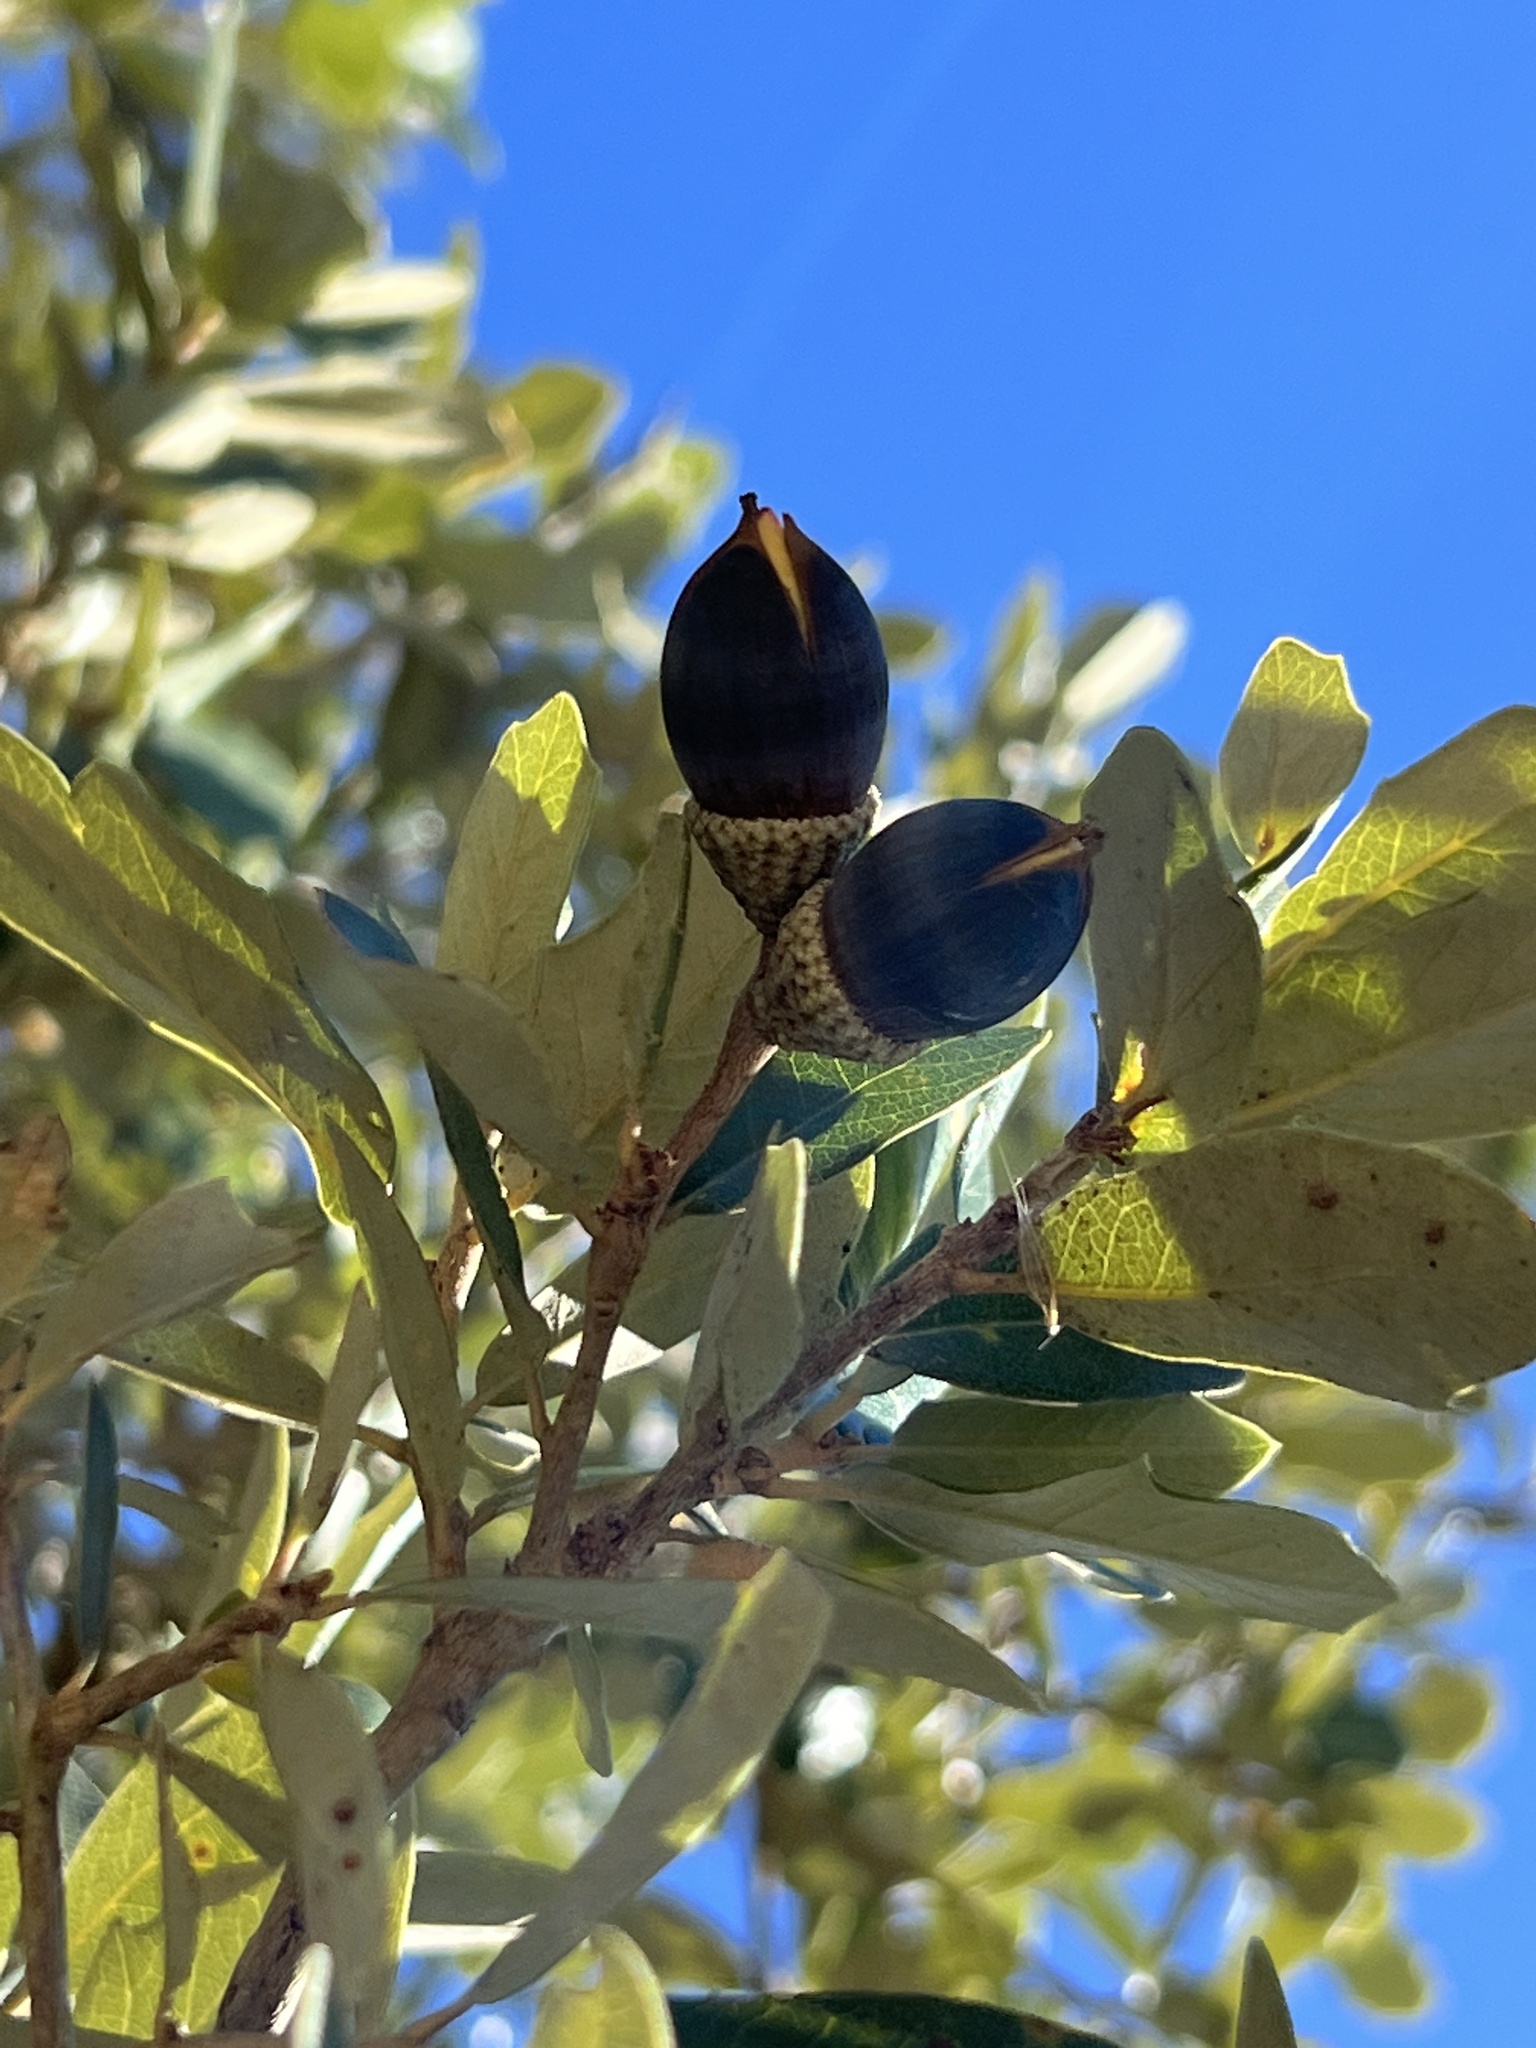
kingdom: Plantae
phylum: Tracheophyta
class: Magnoliopsida
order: Fagales
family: Fagaceae
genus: Quercus
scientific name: Quercus virginiana
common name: Southern live oak
